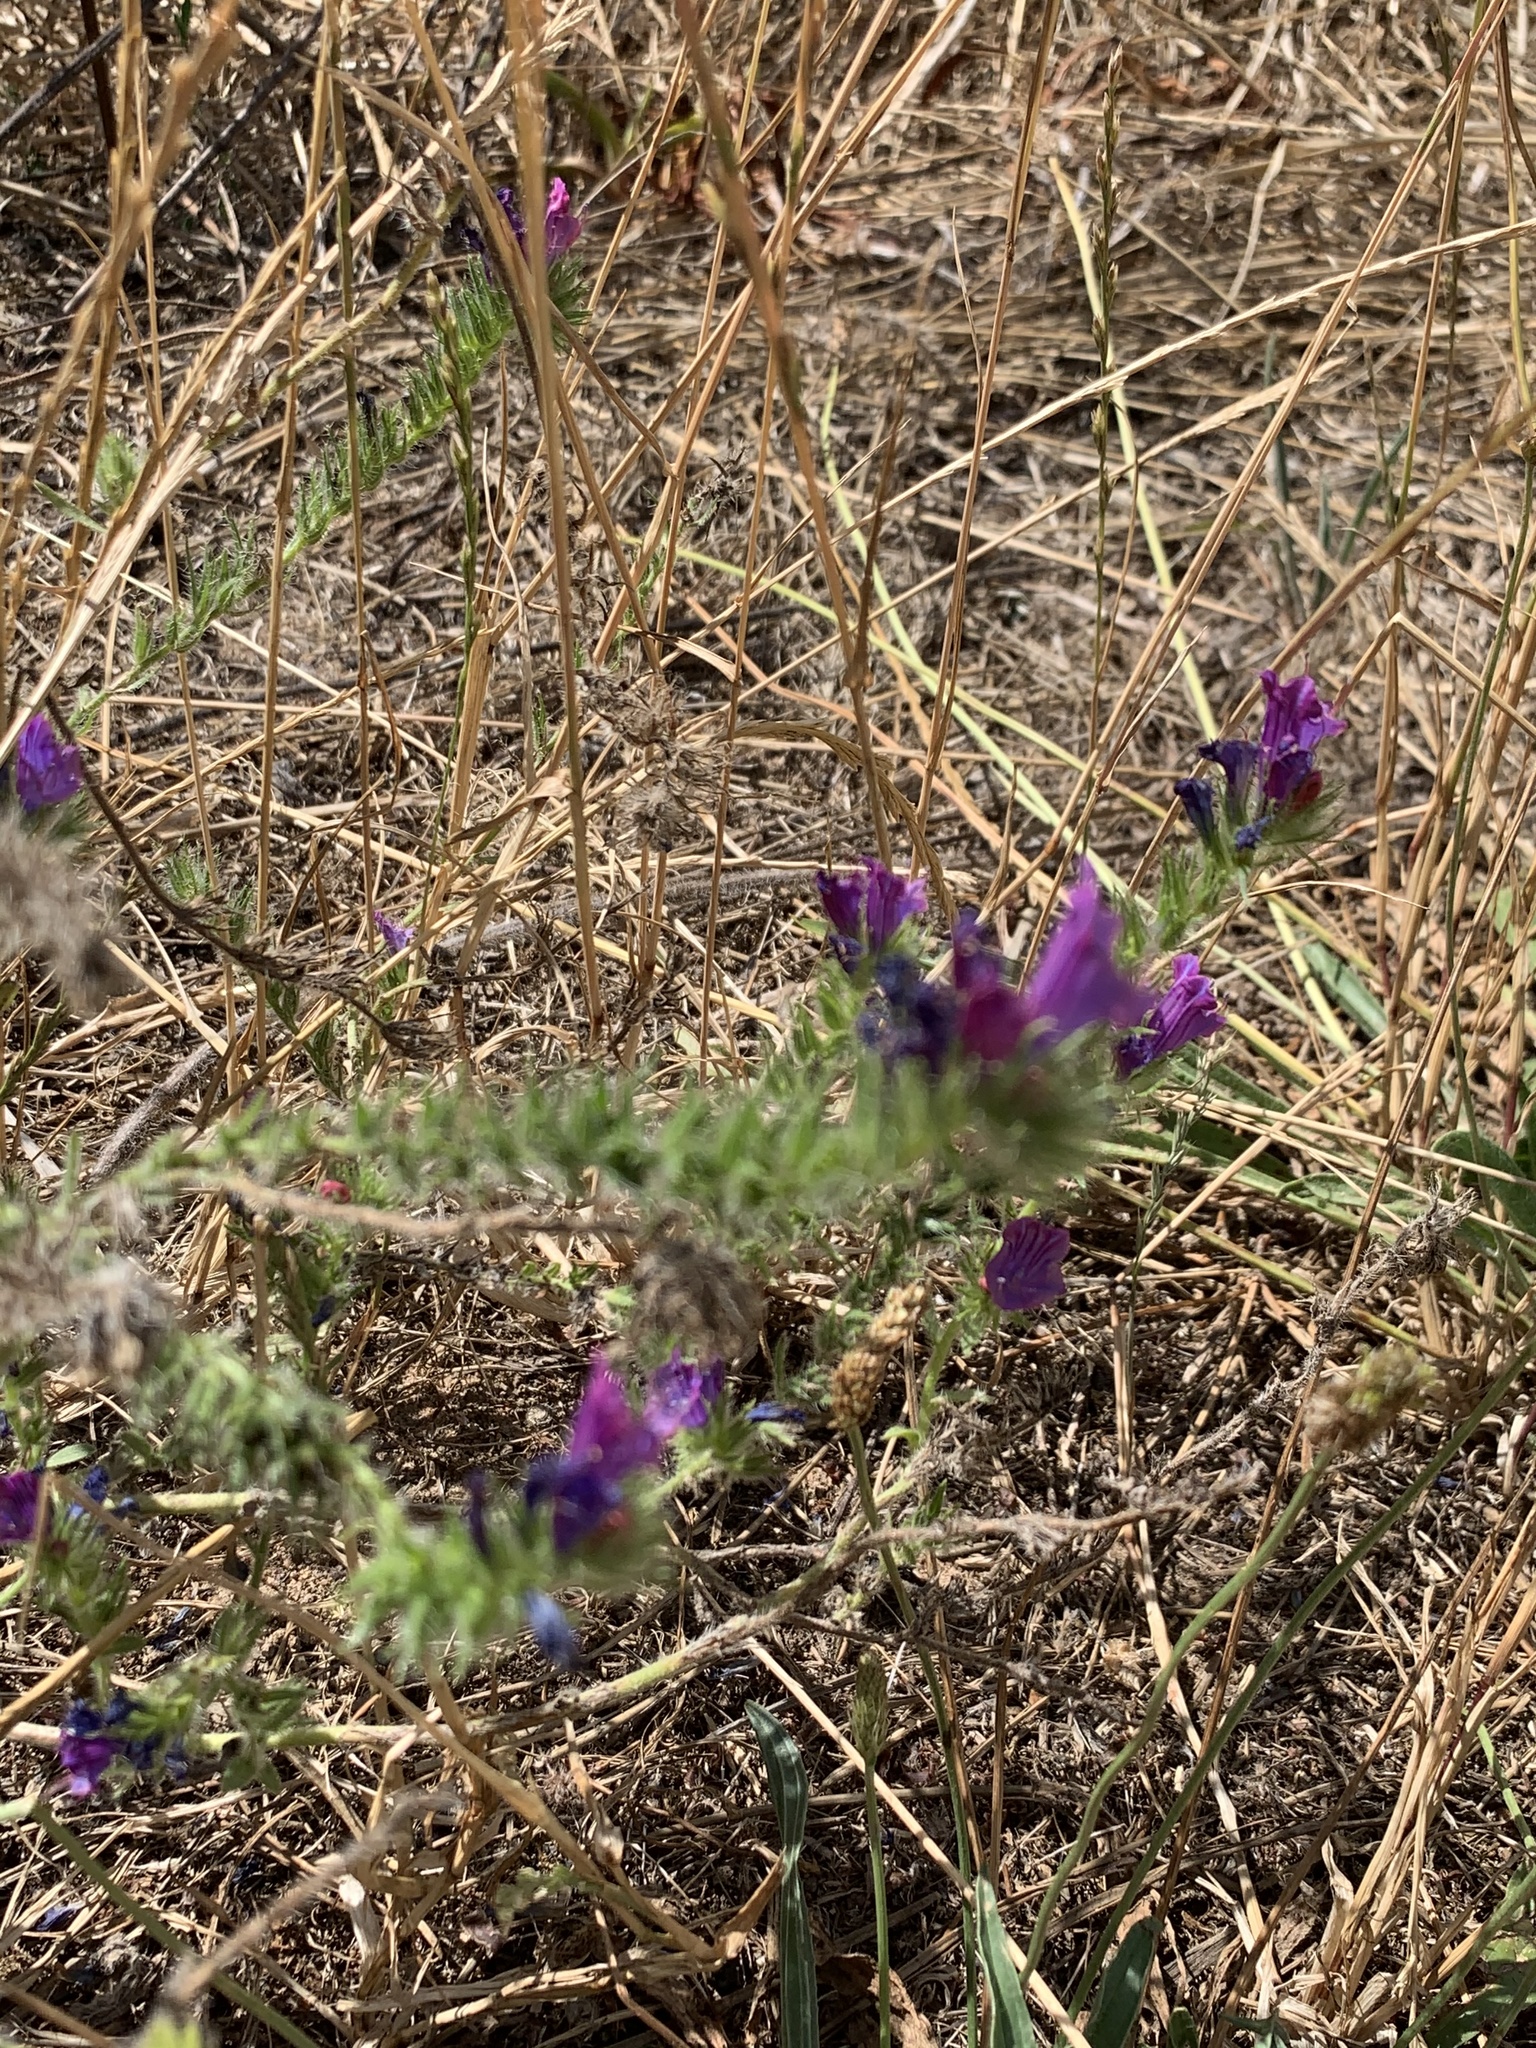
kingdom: Plantae
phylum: Tracheophyta
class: Magnoliopsida
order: Boraginales
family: Boraginaceae
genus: Echium
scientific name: Echium plantagineum
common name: Purple viper's-bugloss
